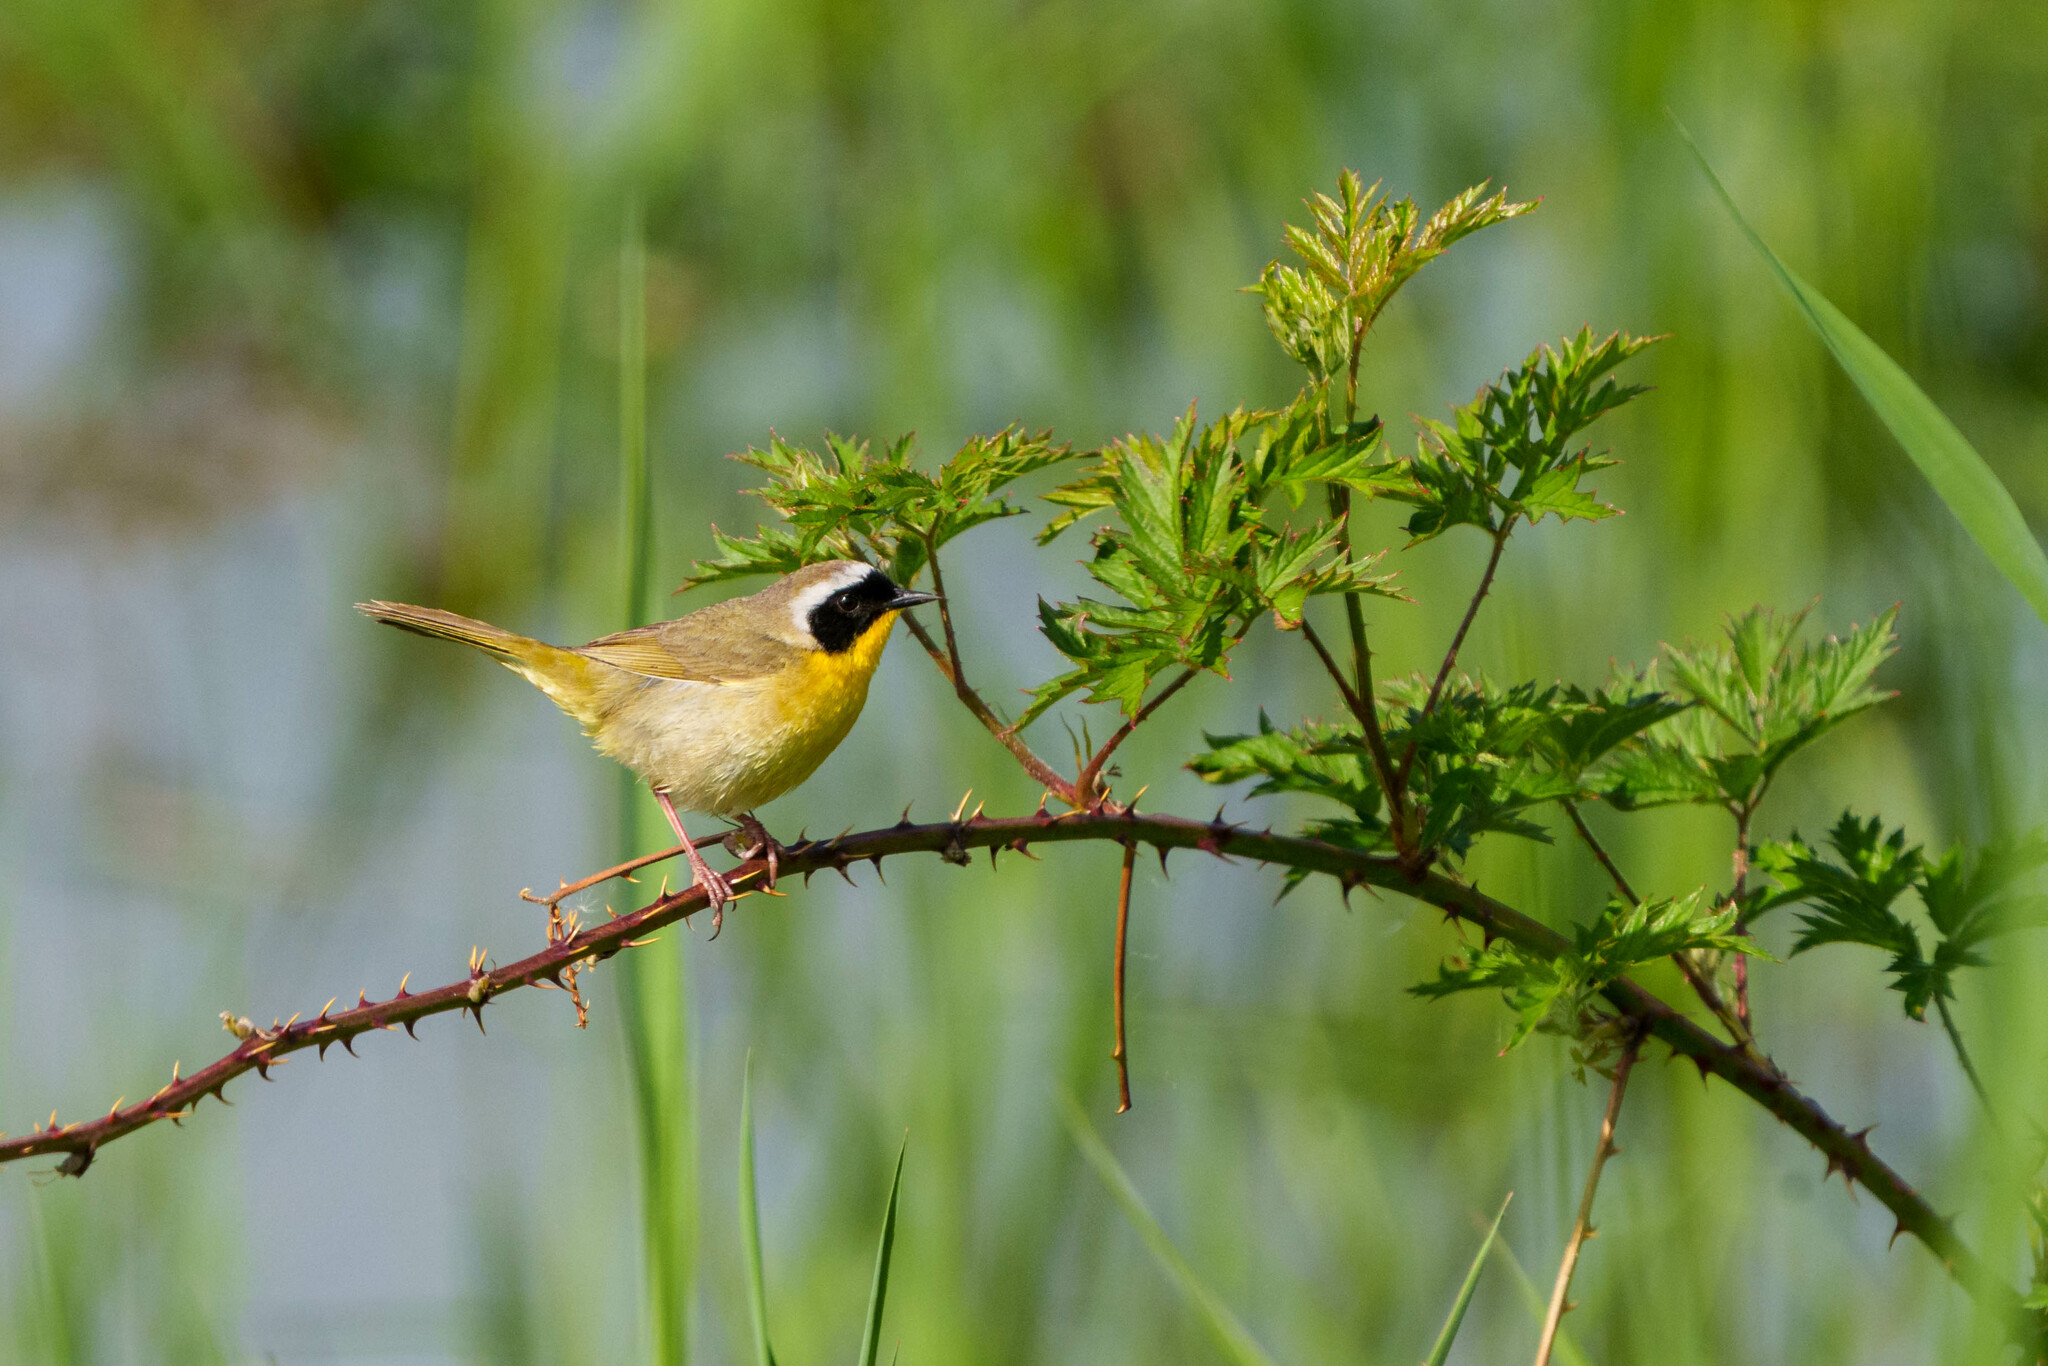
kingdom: Animalia
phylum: Chordata
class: Aves
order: Passeriformes
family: Parulidae
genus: Geothlypis
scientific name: Geothlypis trichas
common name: Common yellowthroat
